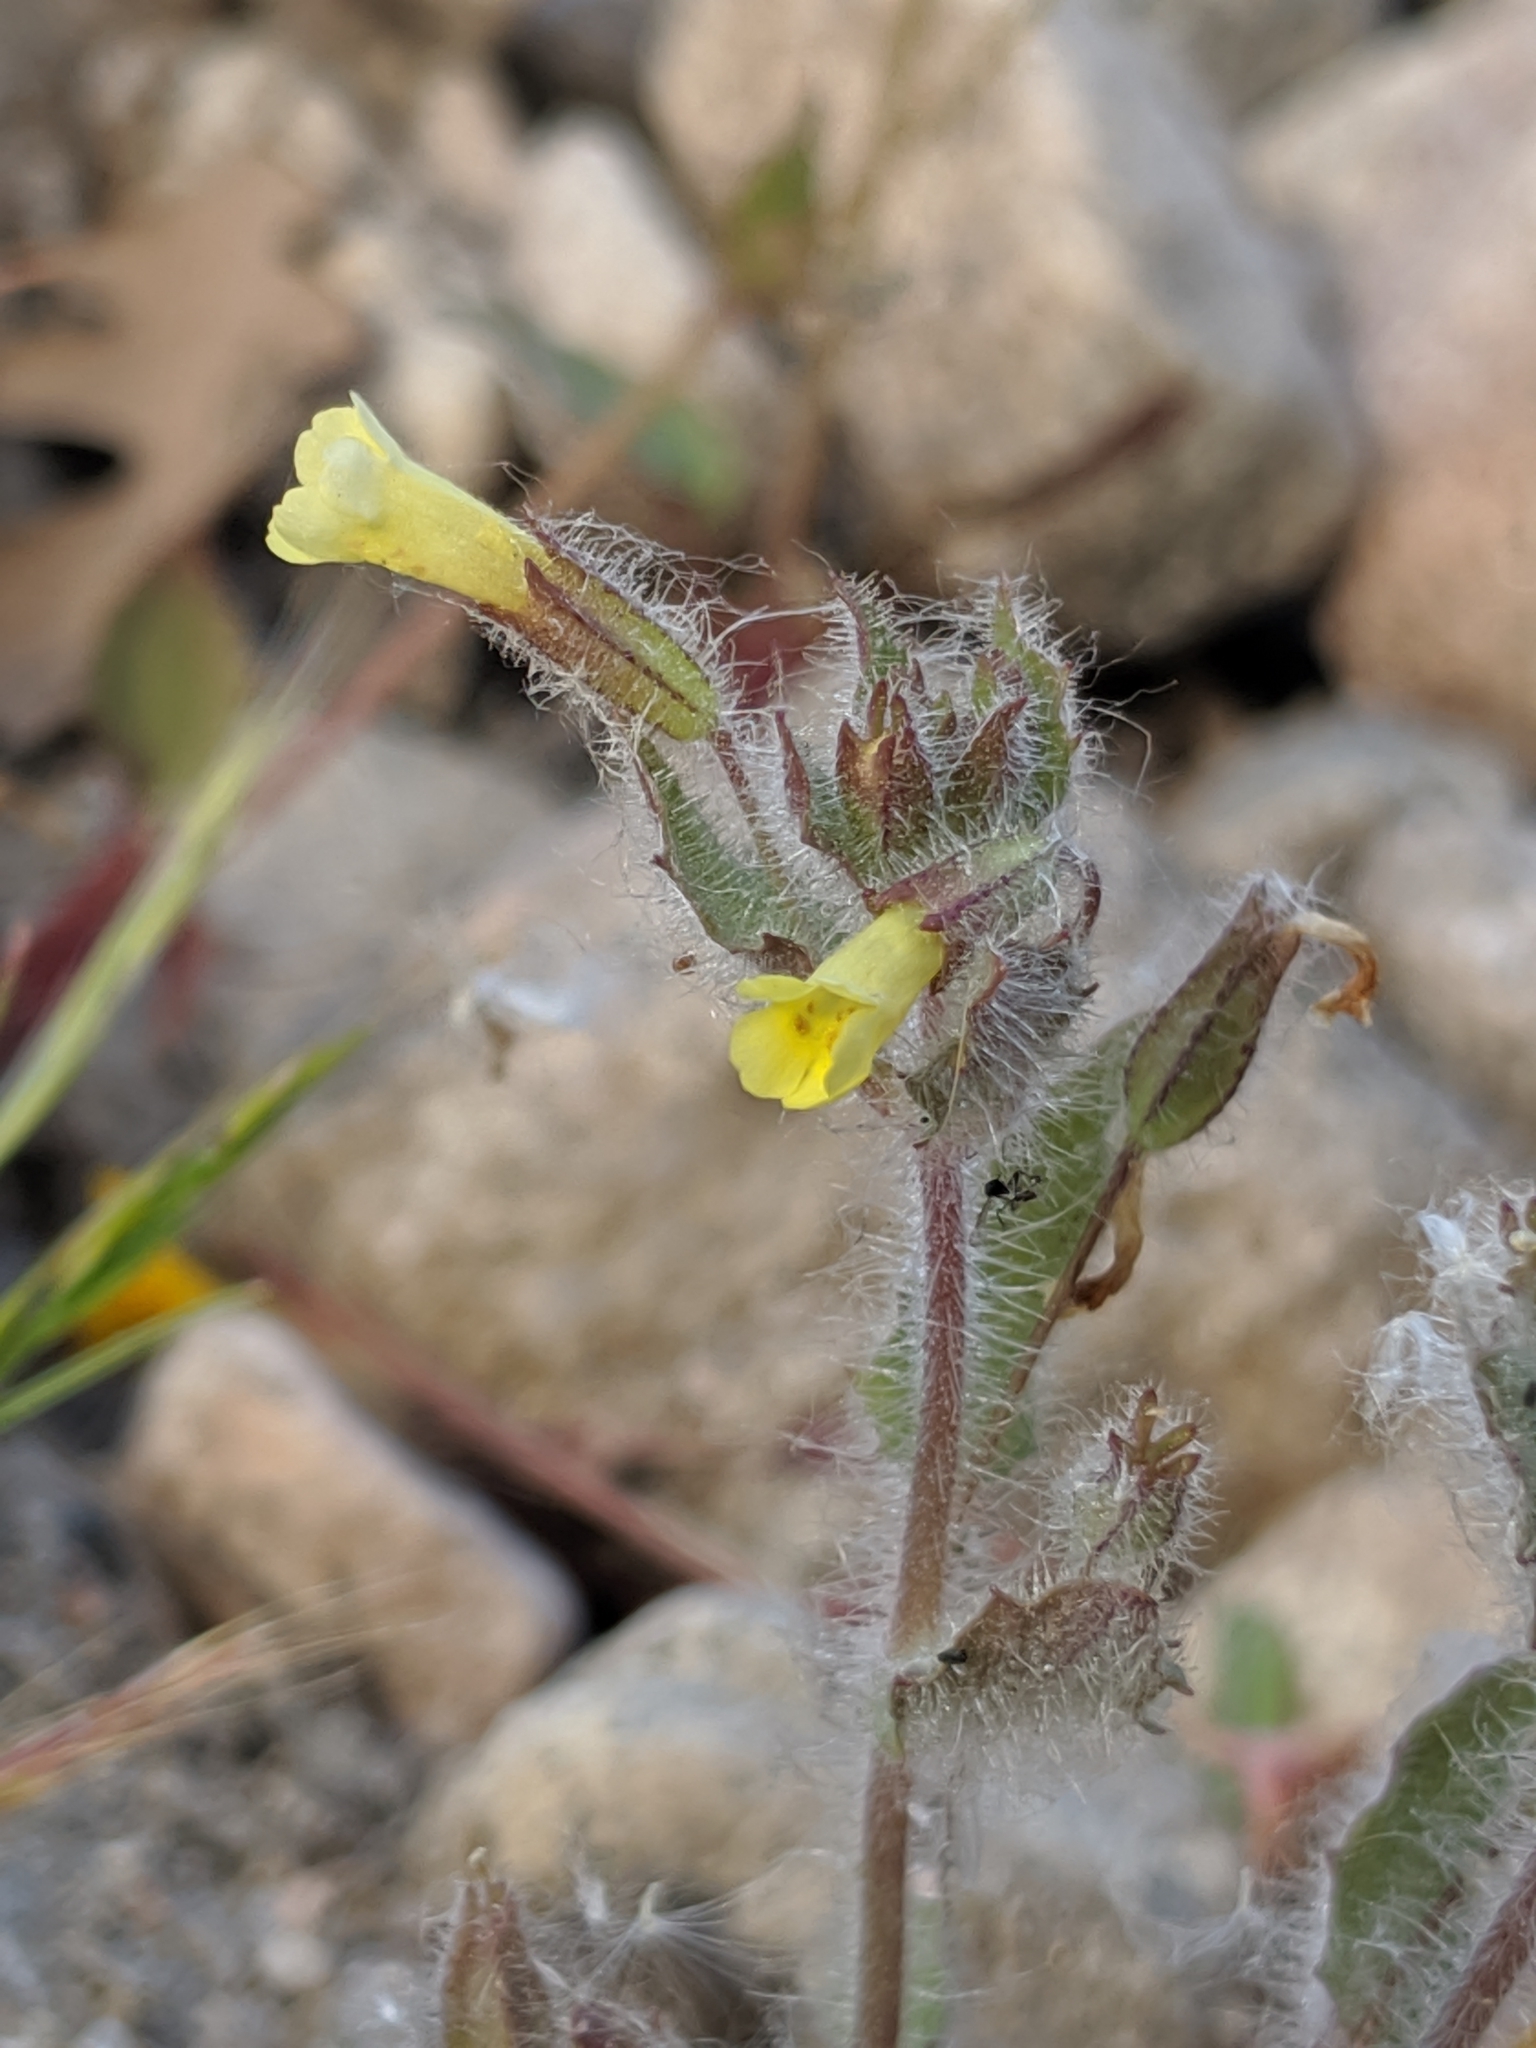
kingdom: Plantae
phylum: Tracheophyta
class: Magnoliopsida
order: Lamiales
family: Phrymaceae
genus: Erythranthe
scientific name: Erythranthe floribunda
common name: Floriferous monkeyflower
